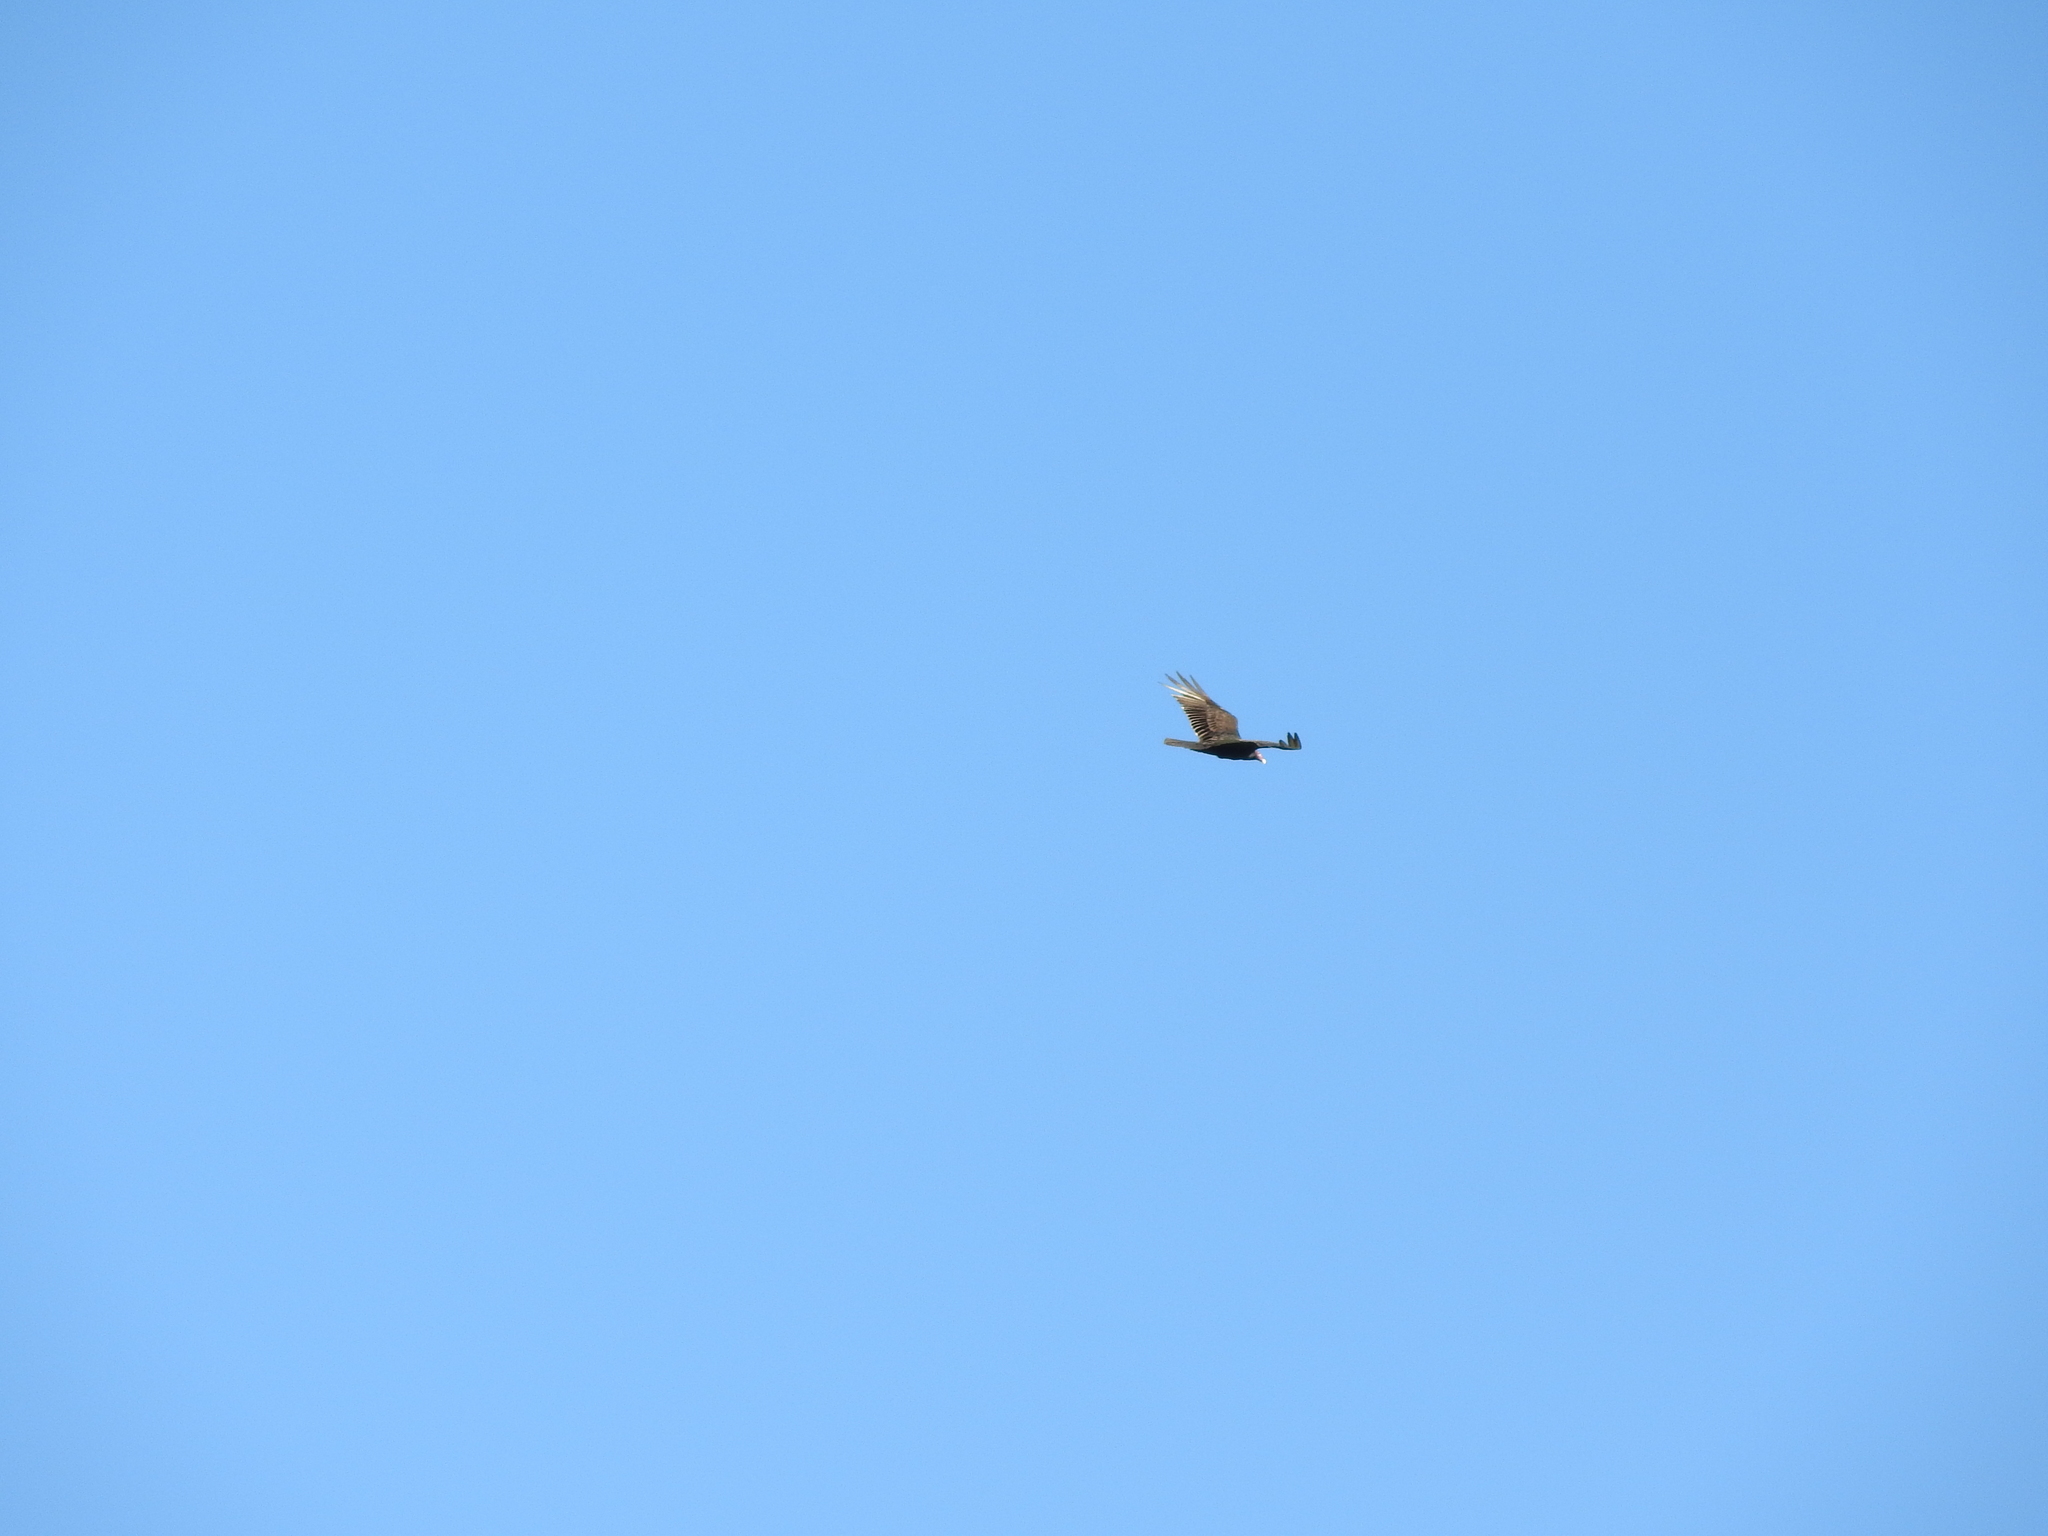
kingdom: Animalia
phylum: Chordata
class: Aves
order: Accipitriformes
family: Cathartidae
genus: Cathartes
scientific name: Cathartes aura
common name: Turkey vulture
